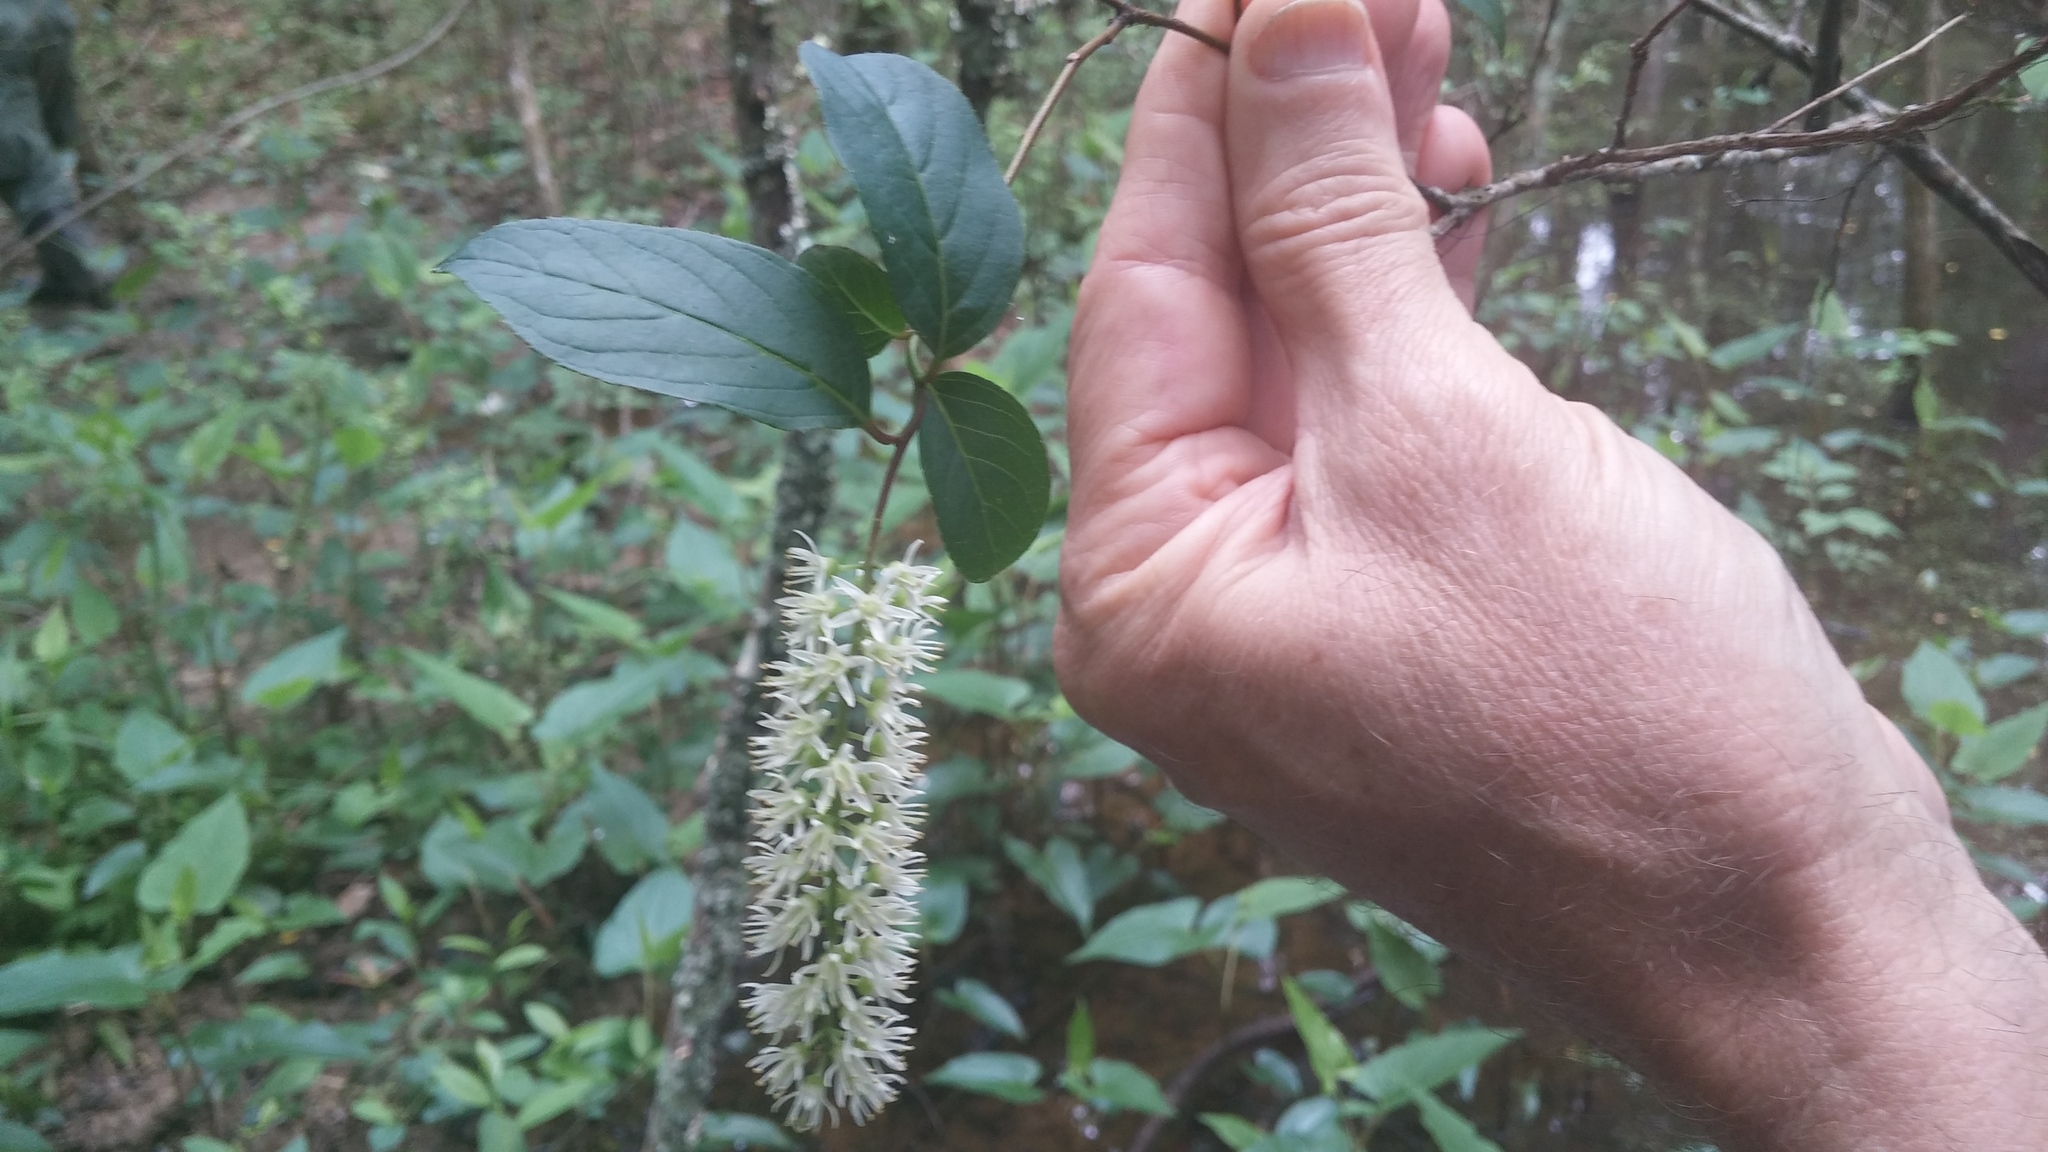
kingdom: Plantae
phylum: Tracheophyta
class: Magnoliopsida
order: Saxifragales
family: Iteaceae
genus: Itea
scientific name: Itea virginica
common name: Sweetspire
